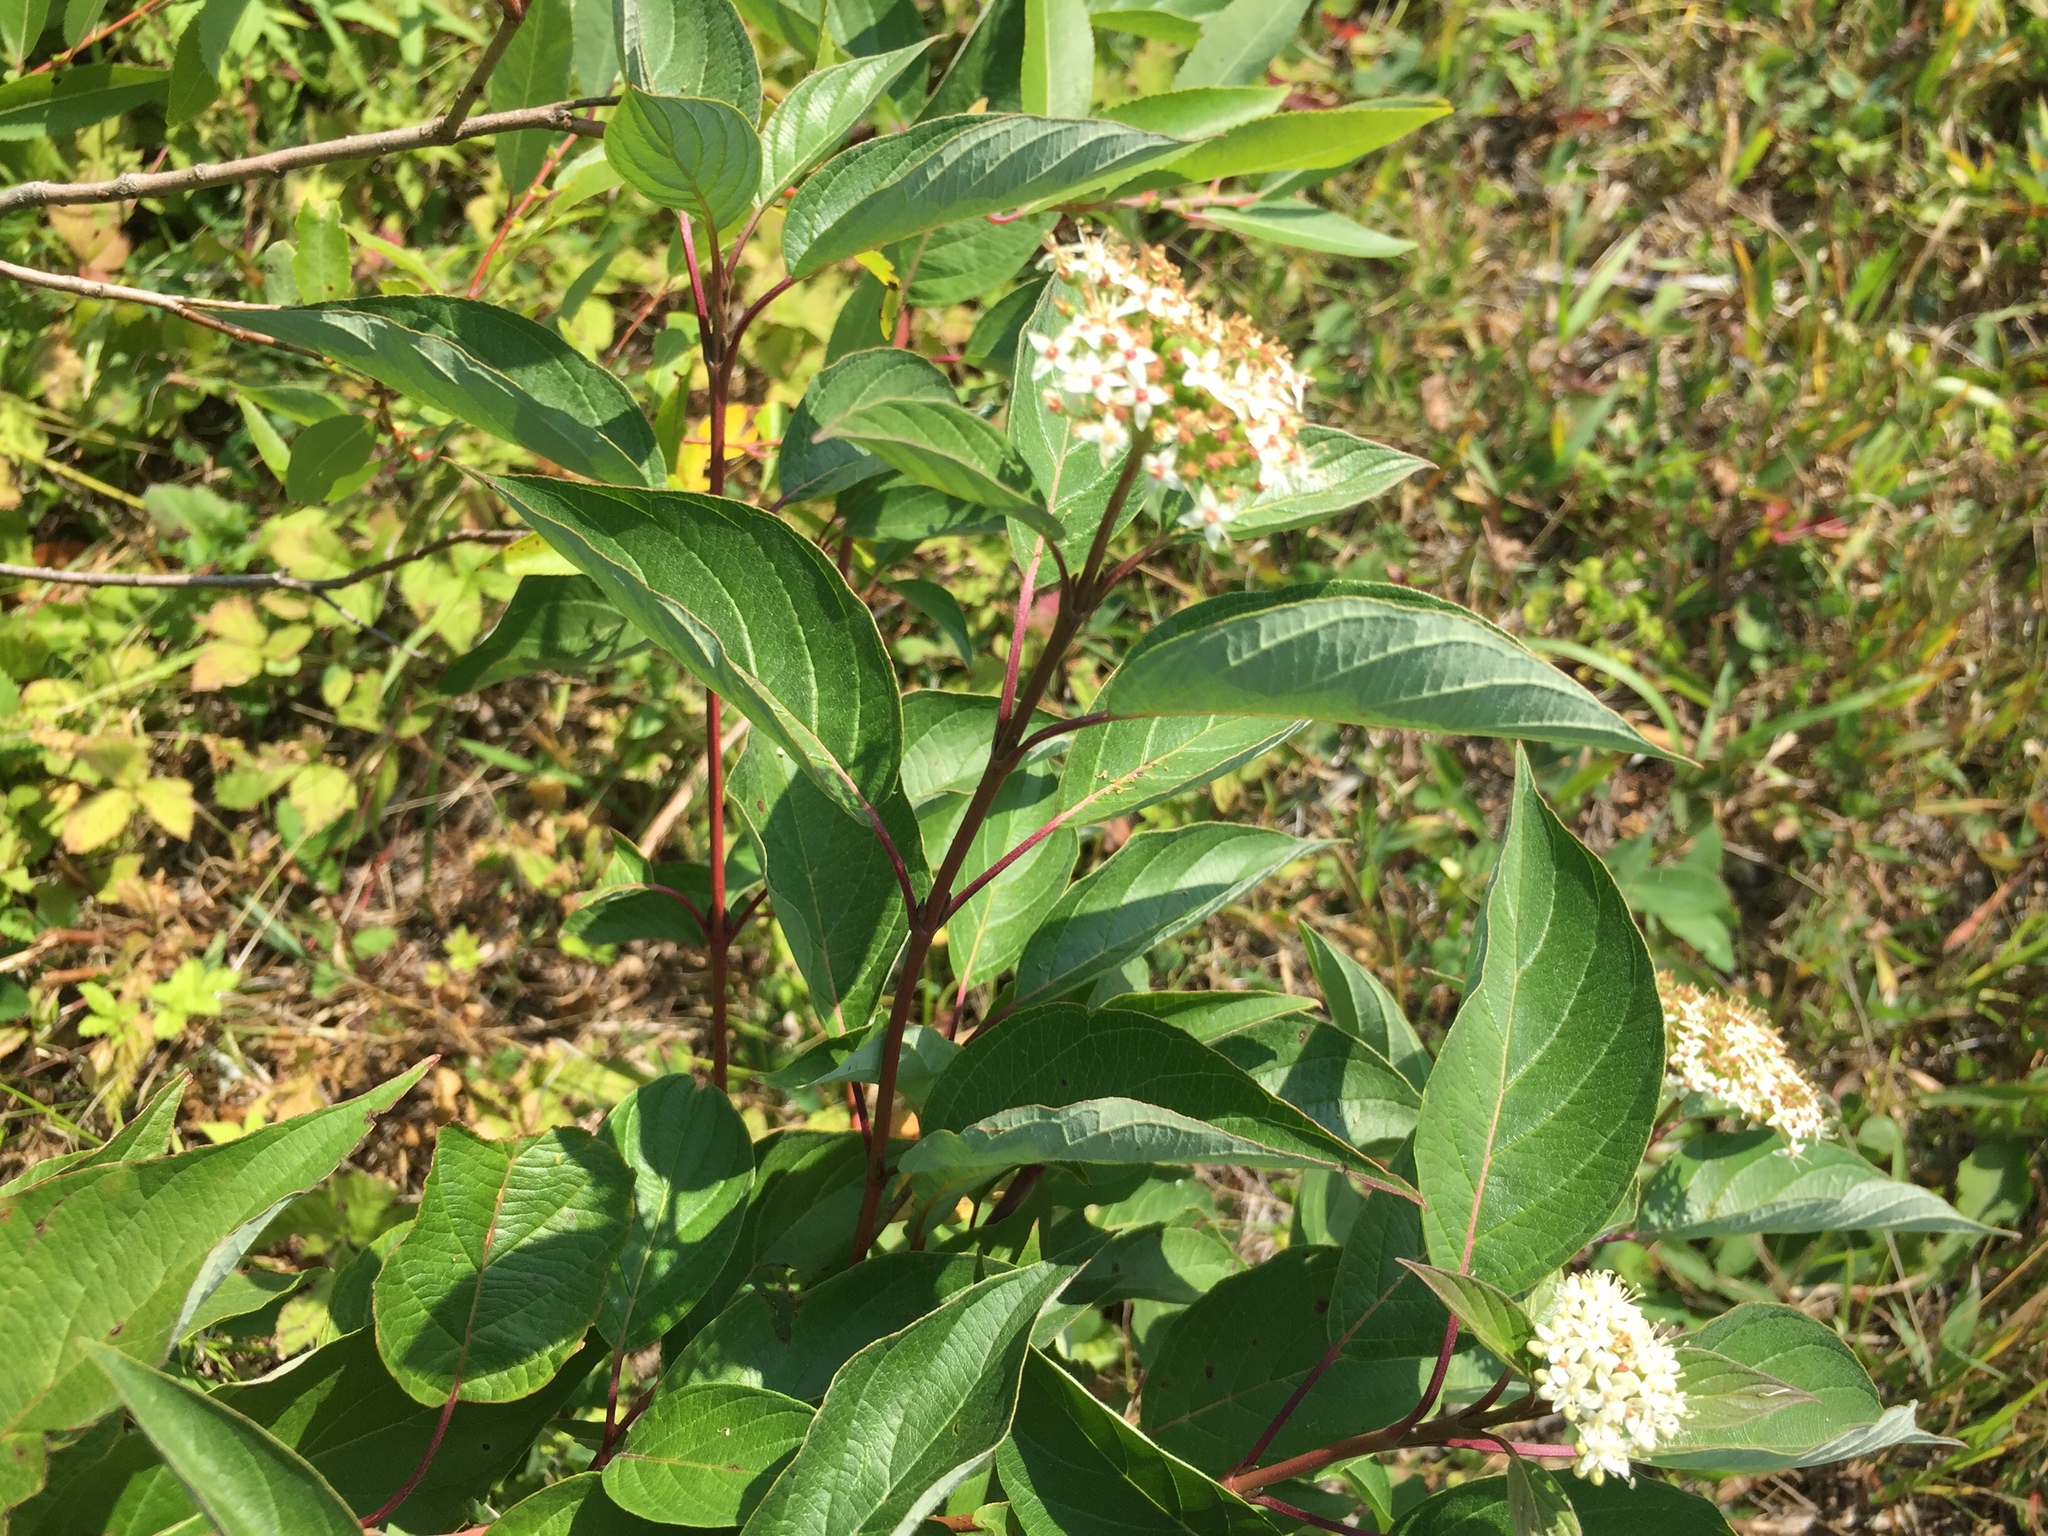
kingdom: Plantae
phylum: Tracheophyta
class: Magnoliopsida
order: Cornales
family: Cornaceae
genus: Cornus
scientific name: Cornus sericea
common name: Red-osier dogwood
